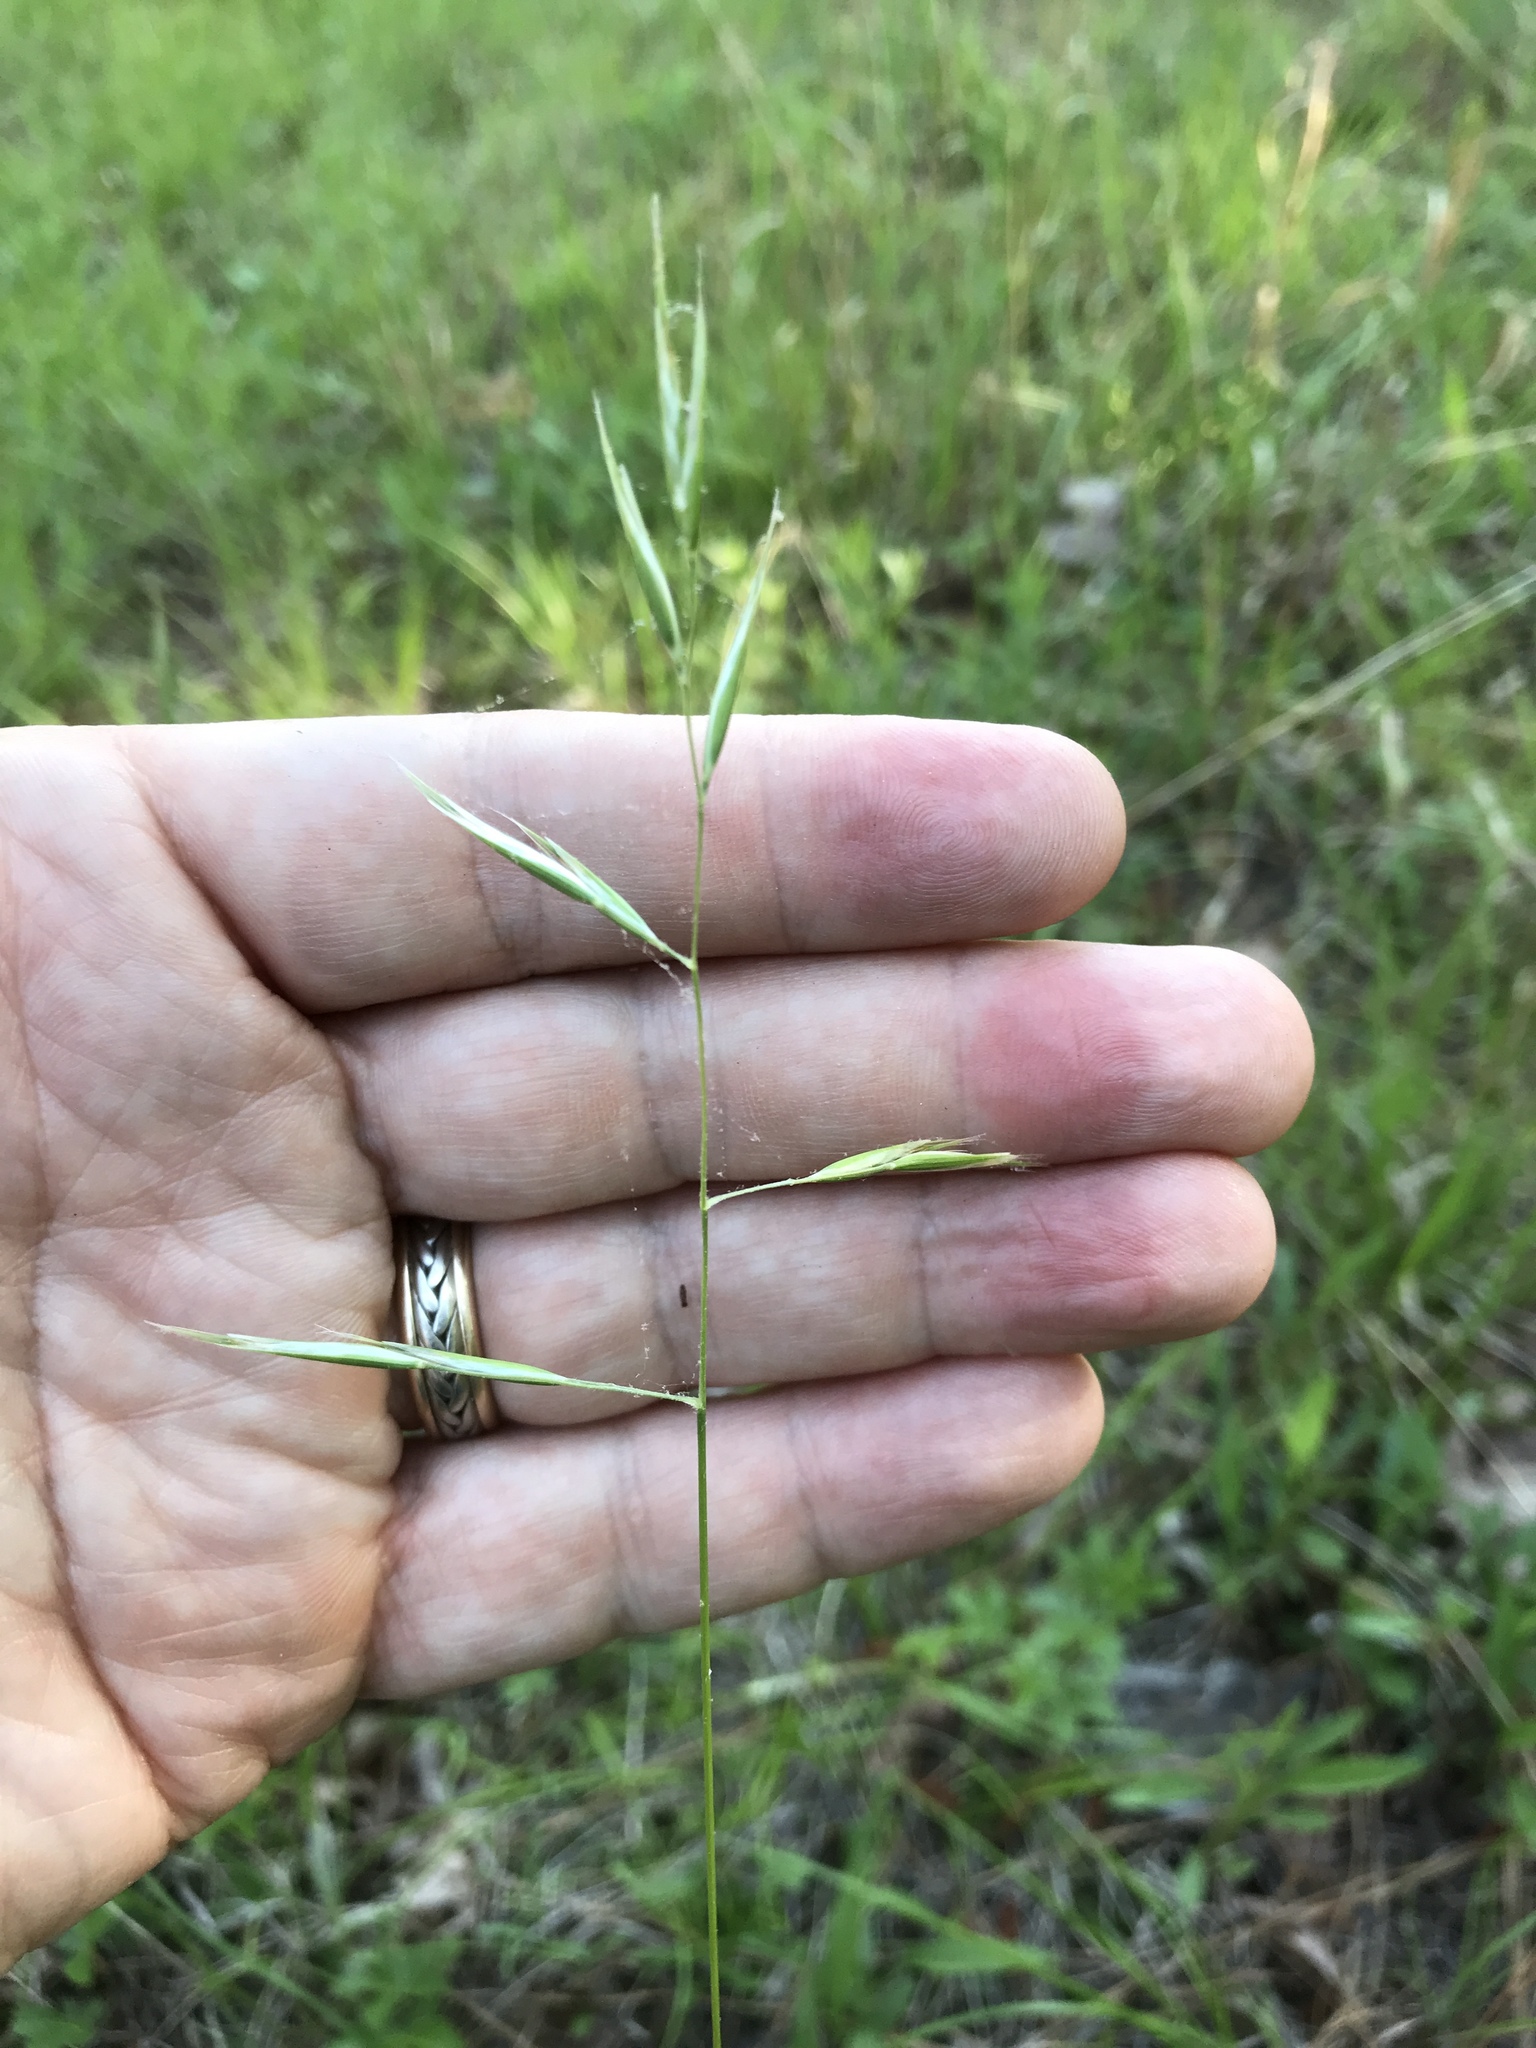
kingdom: Plantae
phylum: Tracheophyta
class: Liliopsida
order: Poales
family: Poaceae
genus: Danthonia
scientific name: Danthonia sericea
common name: Downy danthonia
